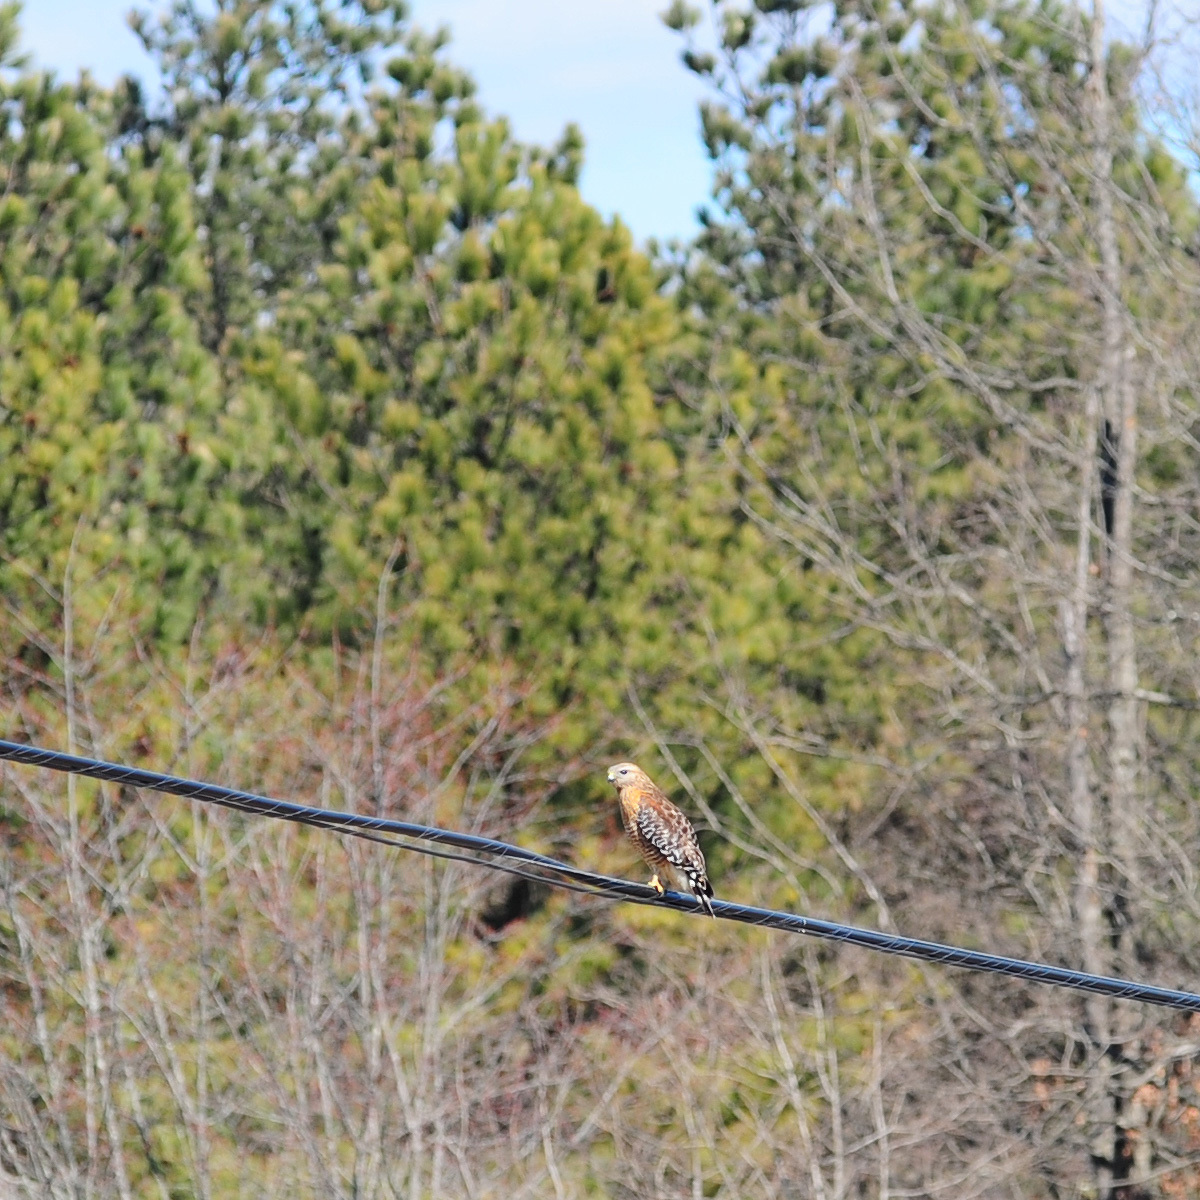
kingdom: Animalia
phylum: Chordata
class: Aves
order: Accipitriformes
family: Accipitridae
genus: Buteo
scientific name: Buteo lineatus
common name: Red-shouldered hawk
